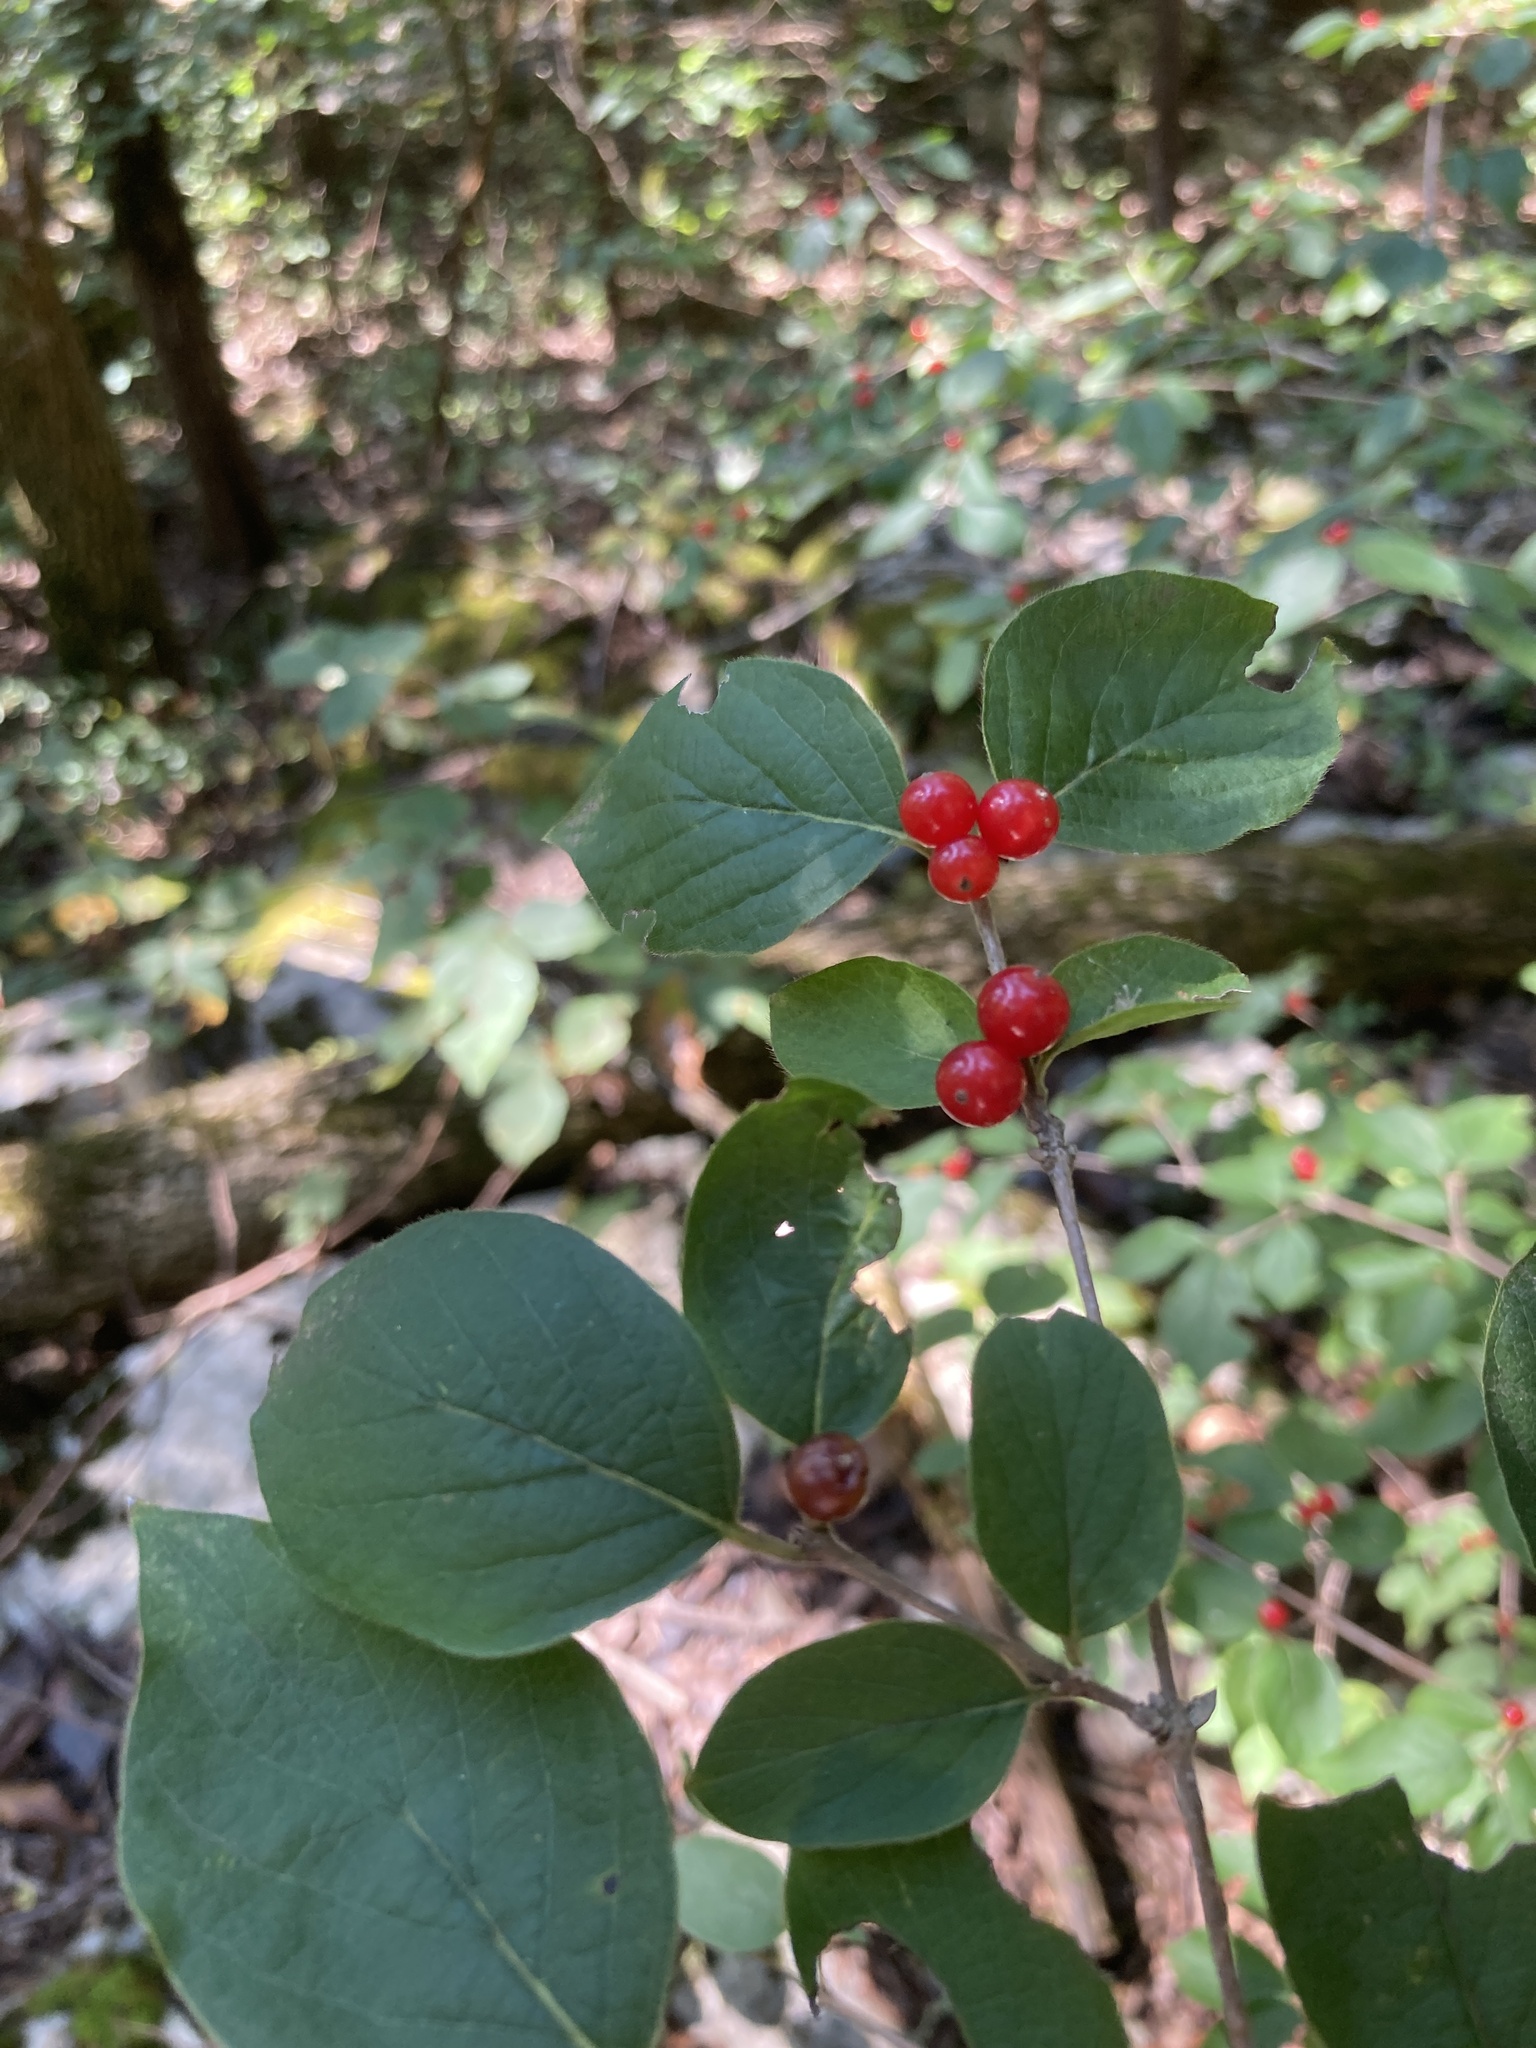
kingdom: Plantae
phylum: Tracheophyta
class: Magnoliopsida
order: Dipsacales
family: Caprifoliaceae
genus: Lonicera
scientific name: Lonicera maackii
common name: Amur honeysuckle
